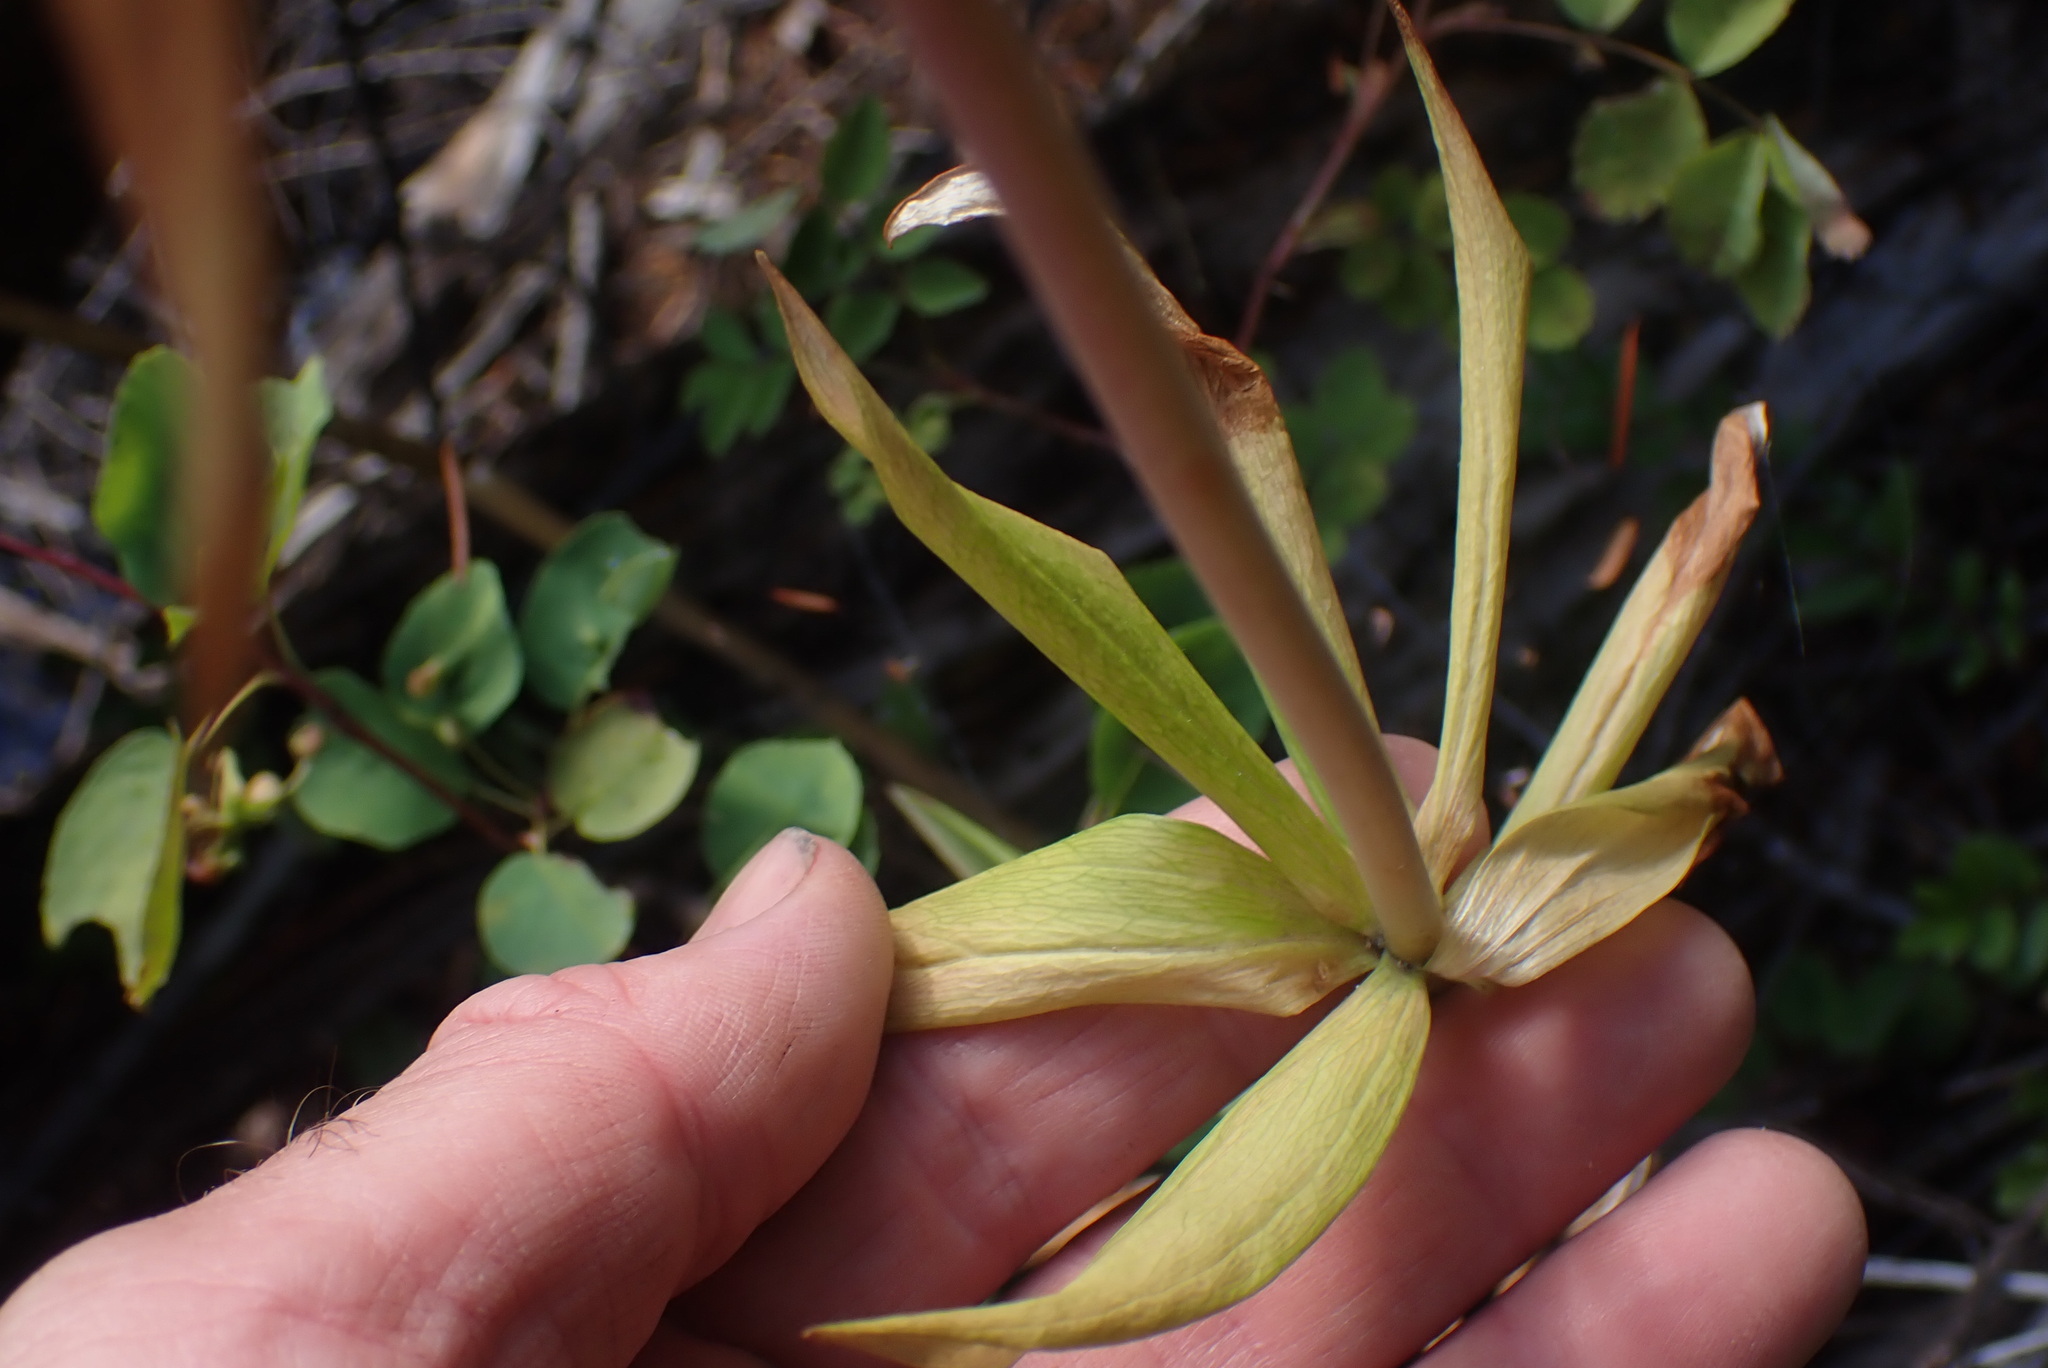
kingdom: Plantae
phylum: Tracheophyta
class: Liliopsida
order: Liliales
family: Liliaceae
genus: Lilium
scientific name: Lilium columbianum
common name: Columbia lily
